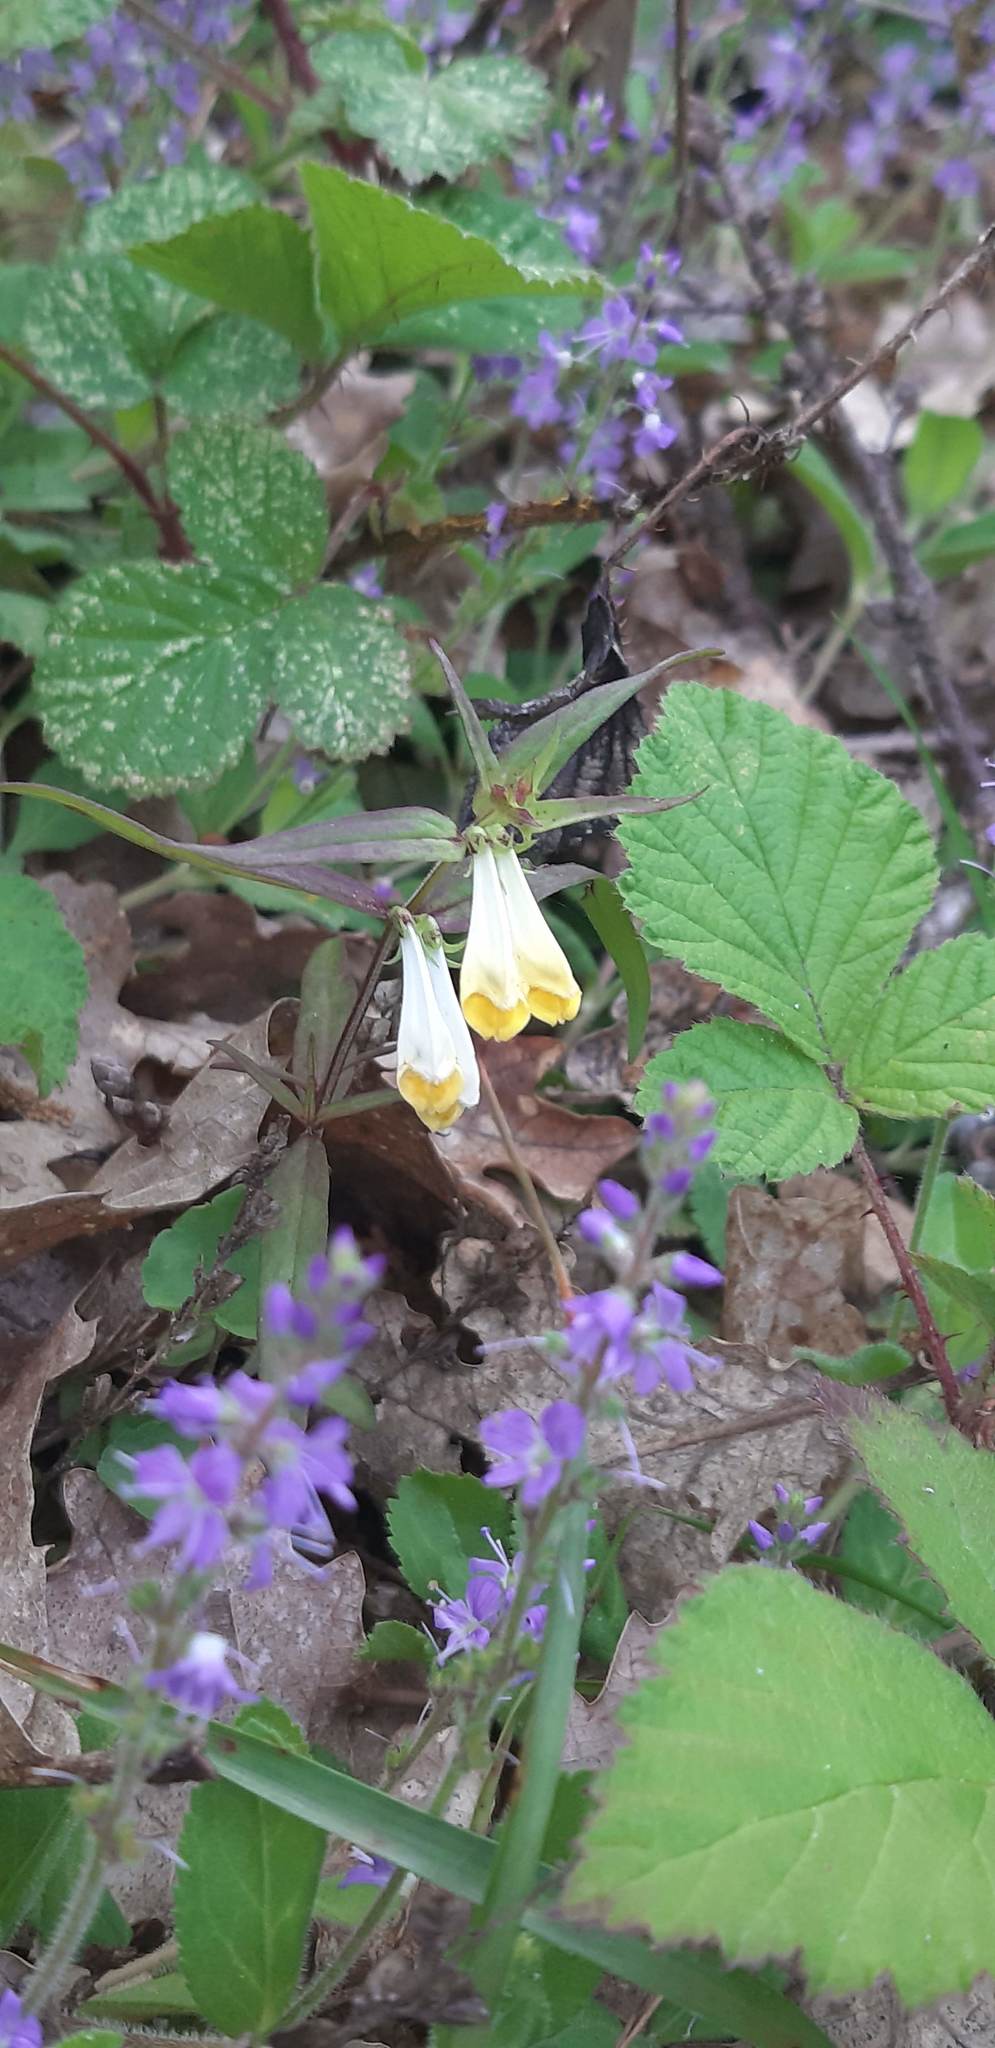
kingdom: Plantae
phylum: Tracheophyta
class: Magnoliopsida
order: Lamiales
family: Orobanchaceae
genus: Melampyrum
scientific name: Melampyrum pratense
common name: Common cow-wheat
